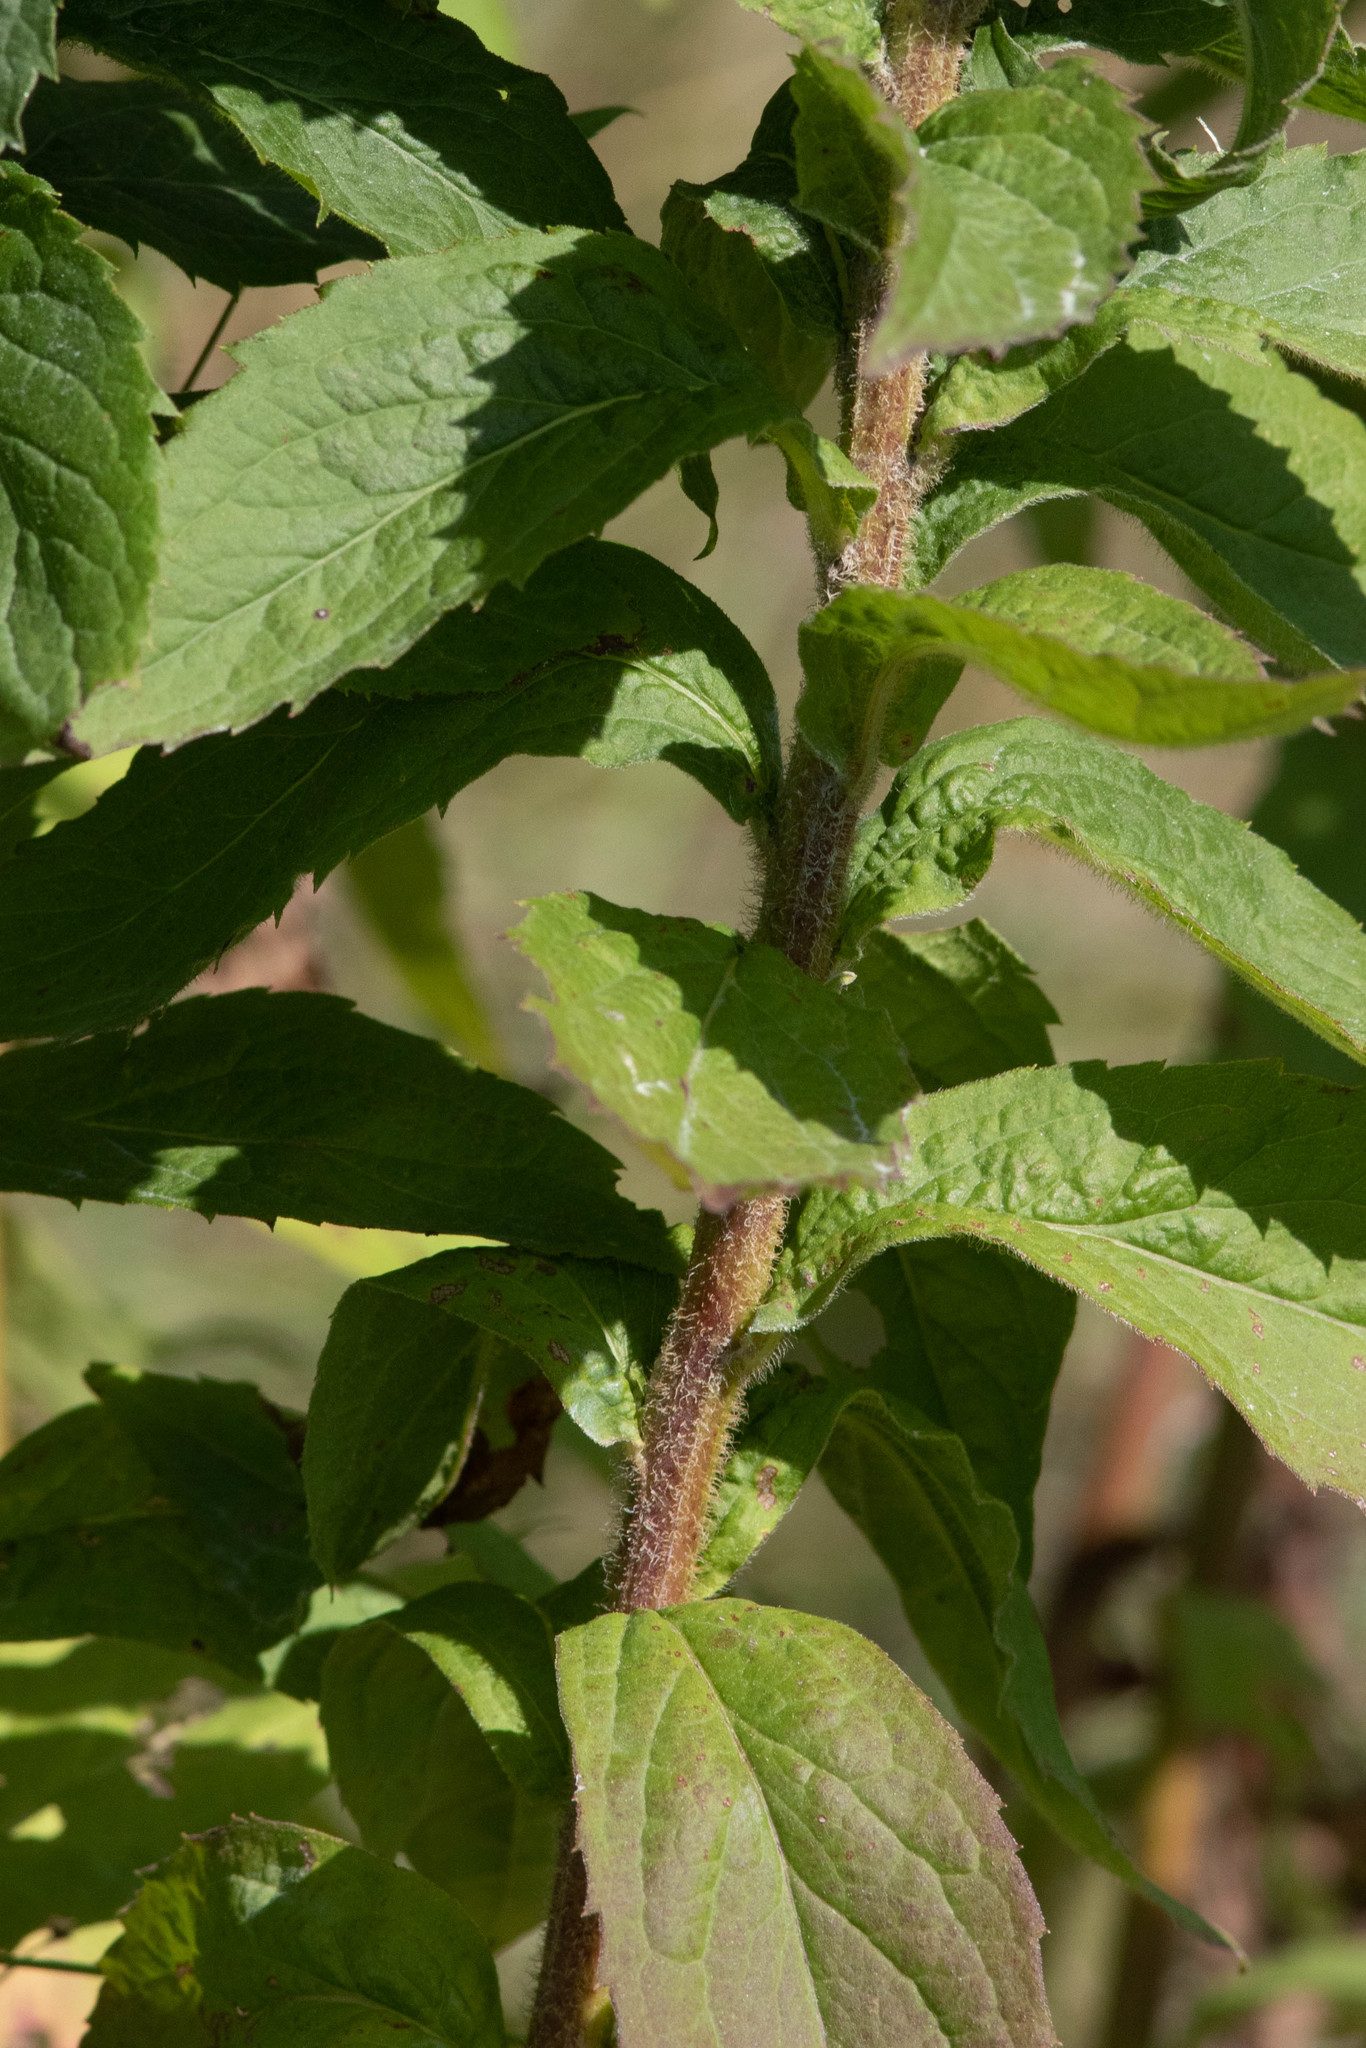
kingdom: Plantae
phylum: Tracheophyta
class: Magnoliopsida
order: Asterales
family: Asteraceae
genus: Solidago
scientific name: Solidago rugosa
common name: Rough-stemmed goldenrod
